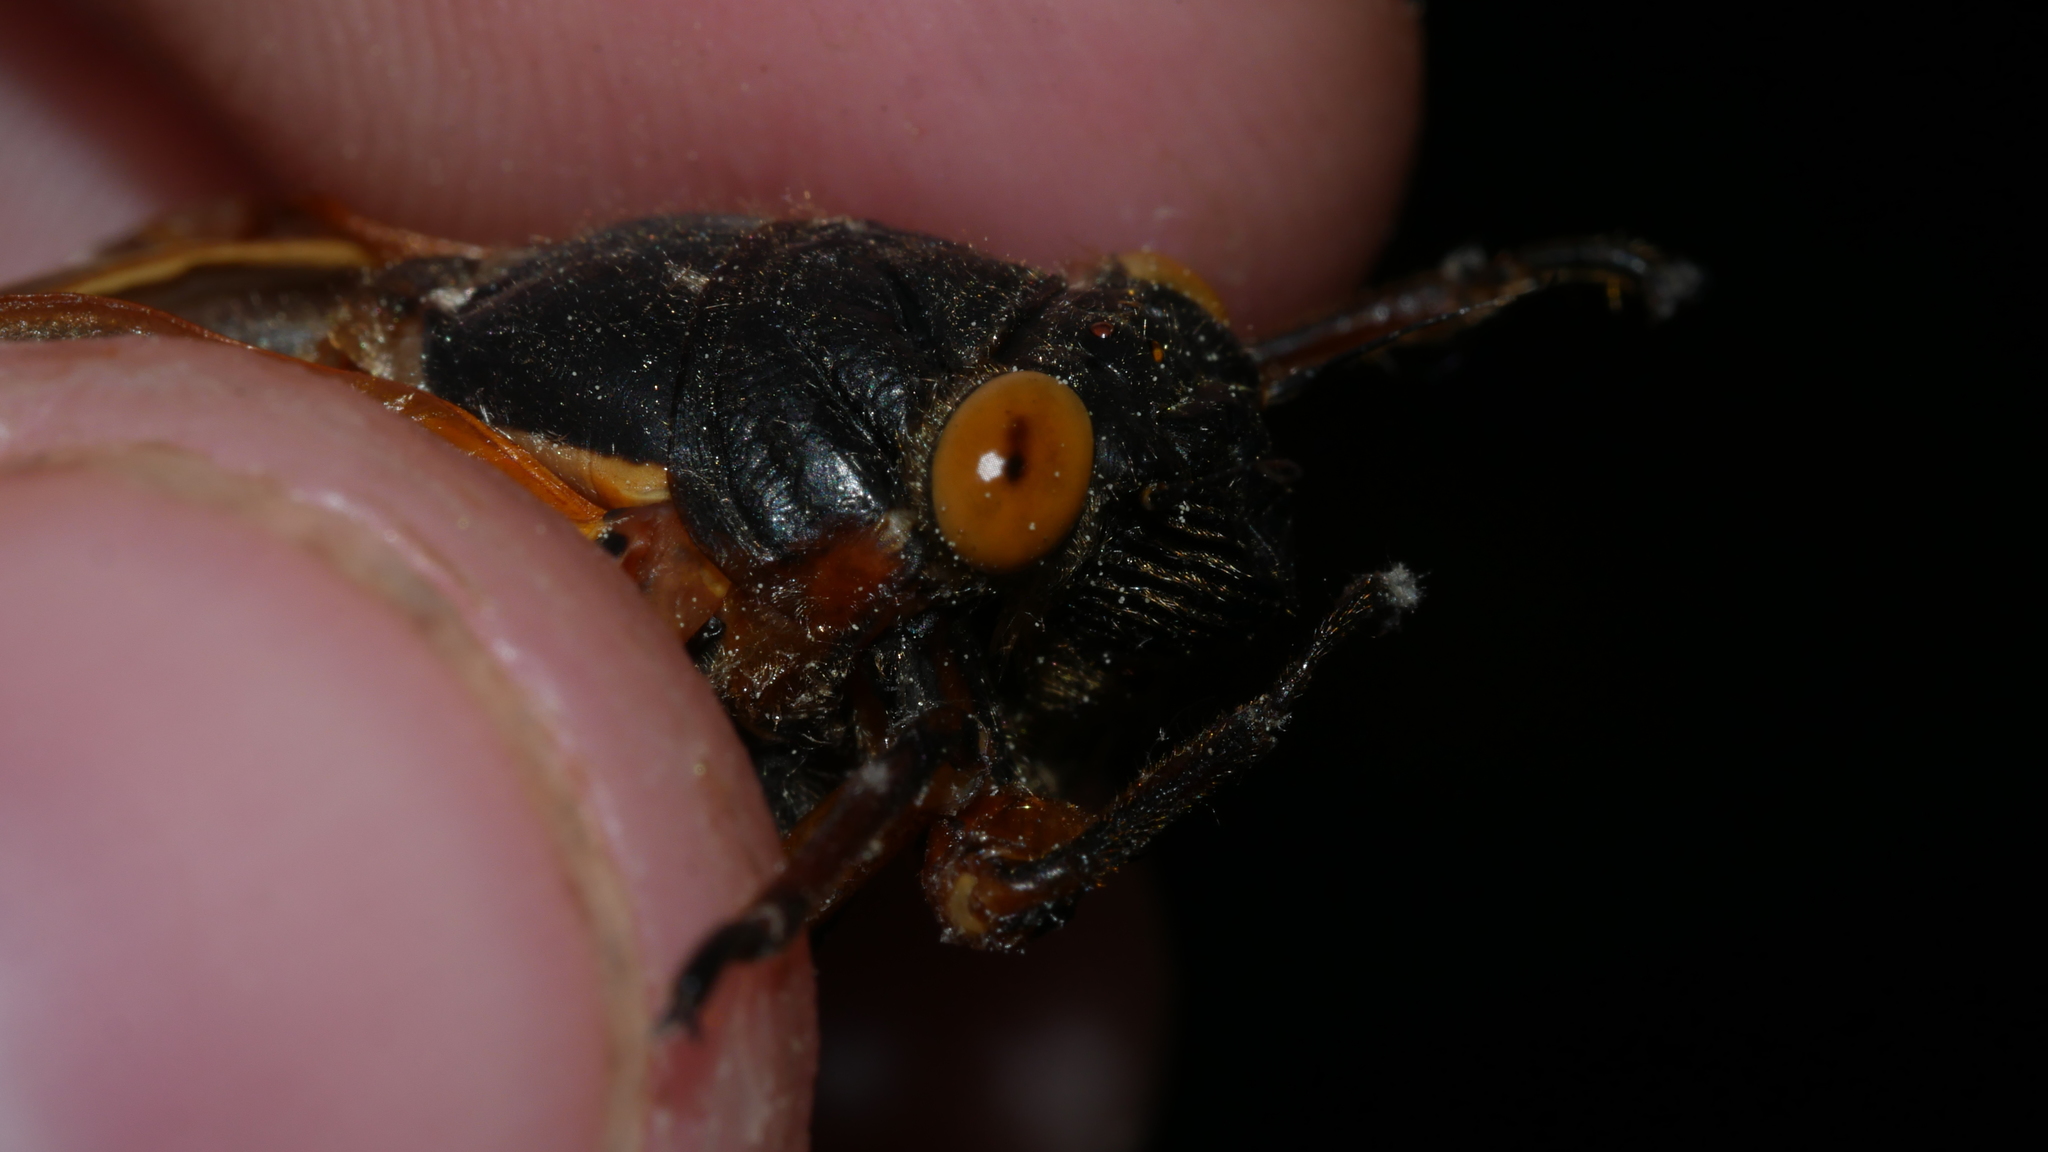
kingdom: Animalia
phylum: Arthropoda
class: Insecta
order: Hemiptera
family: Cicadidae
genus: Magicicada
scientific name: Magicicada septendecim
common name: Periodical cicada
